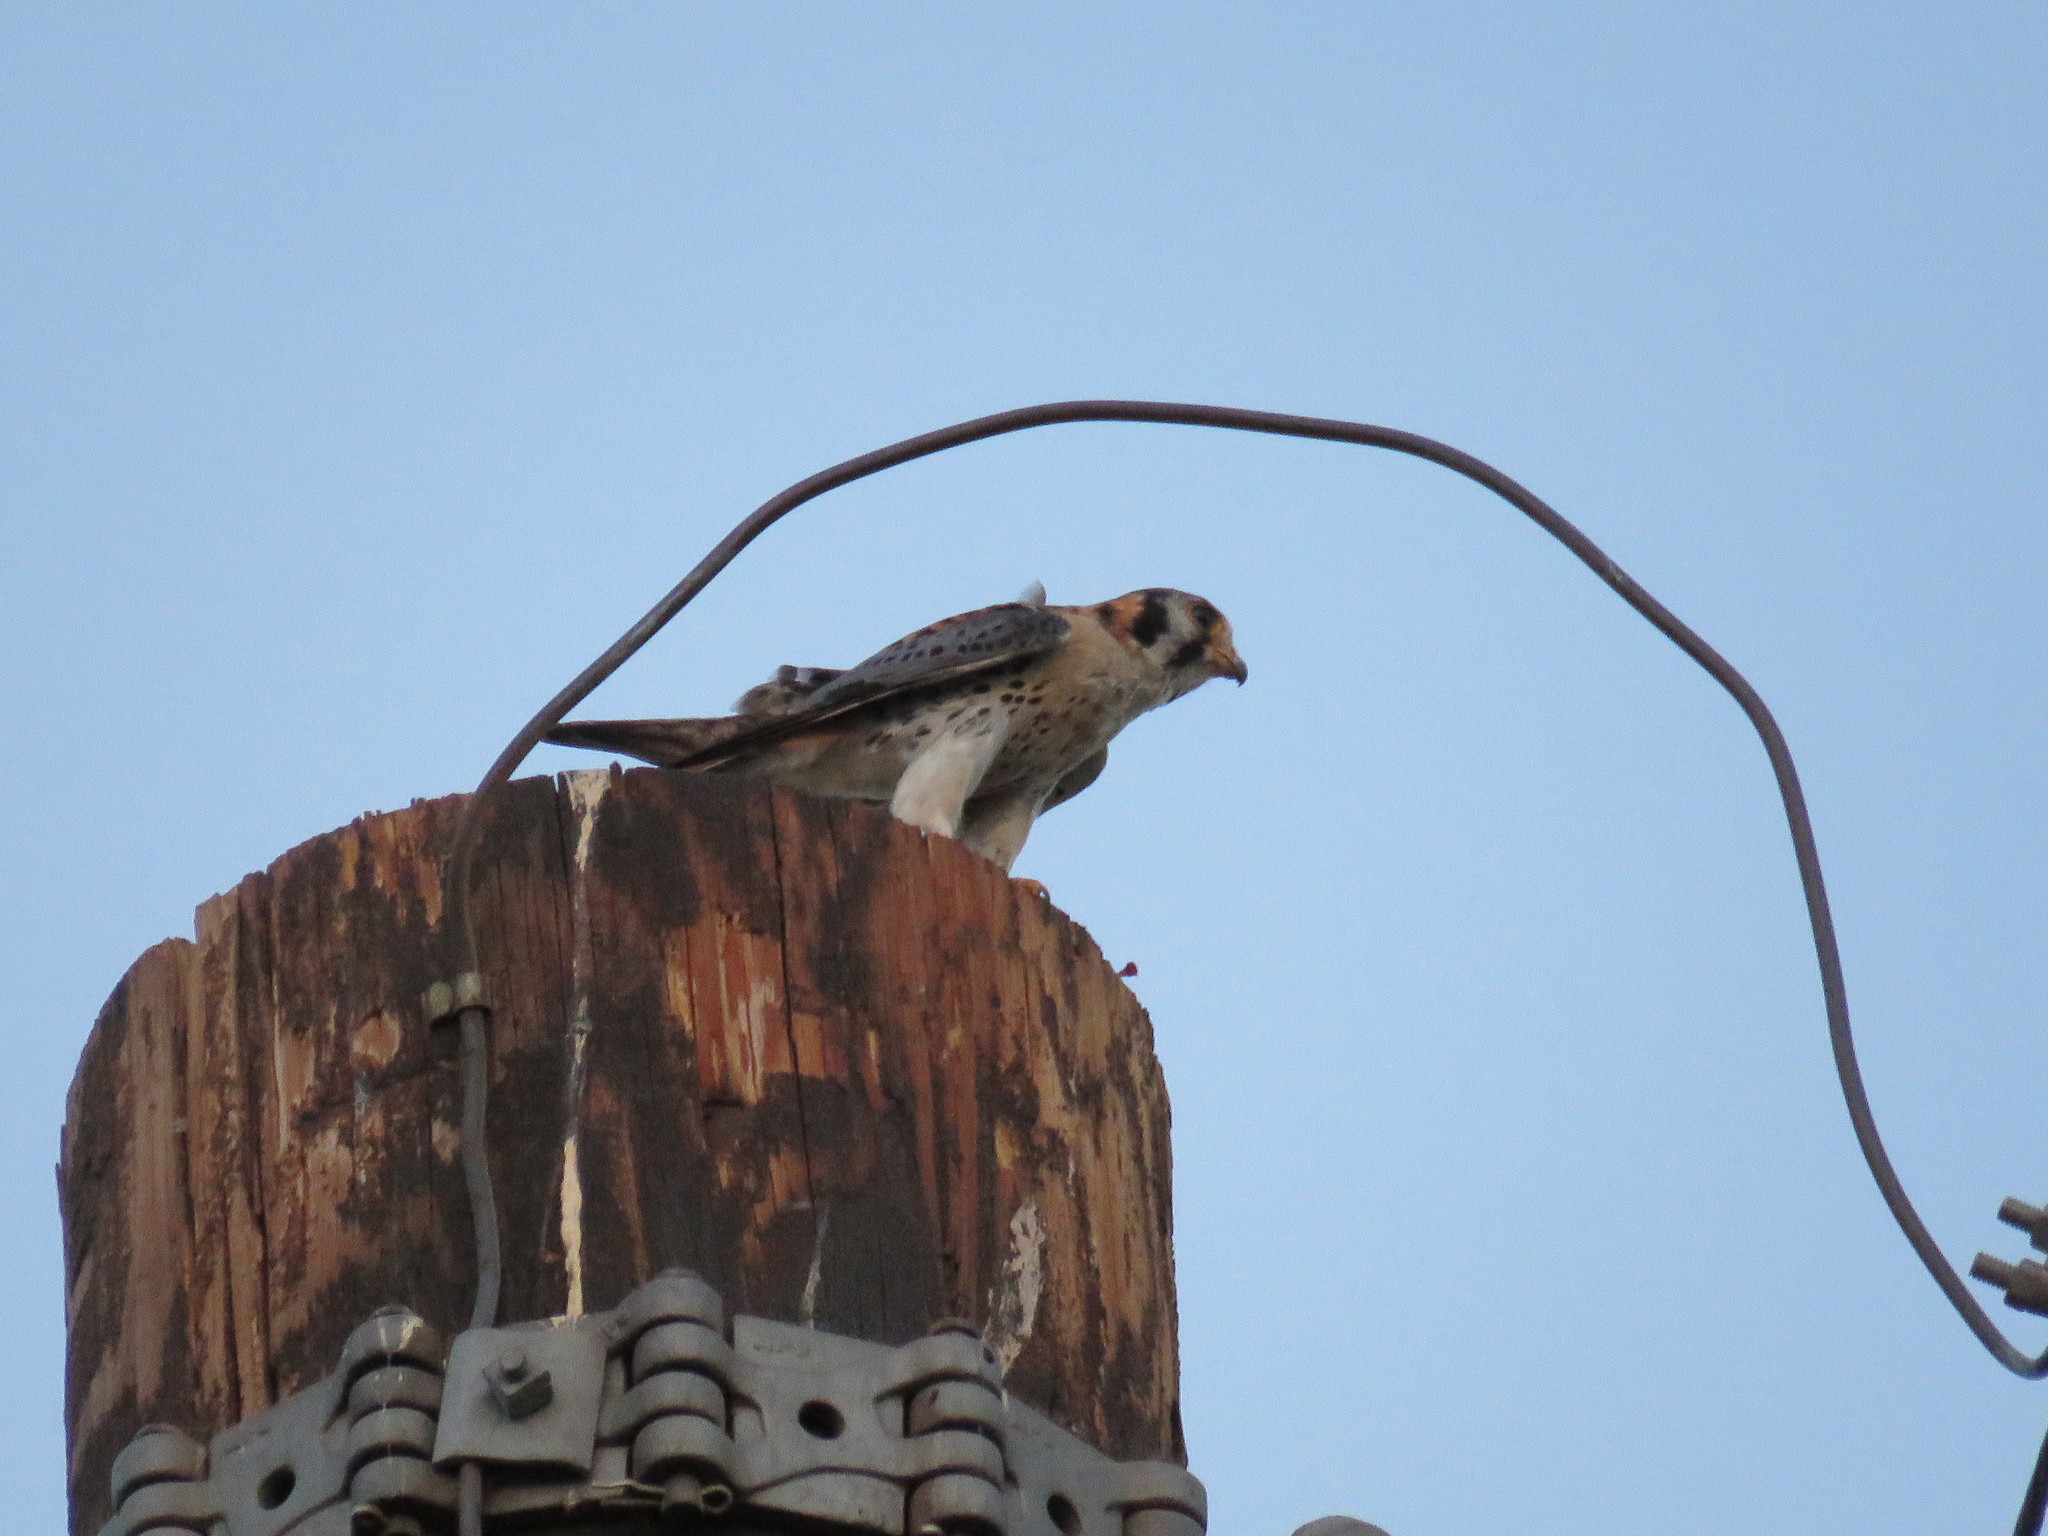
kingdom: Animalia
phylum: Chordata
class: Aves
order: Falconiformes
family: Falconidae
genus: Falco
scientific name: Falco sparverius
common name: American kestrel
